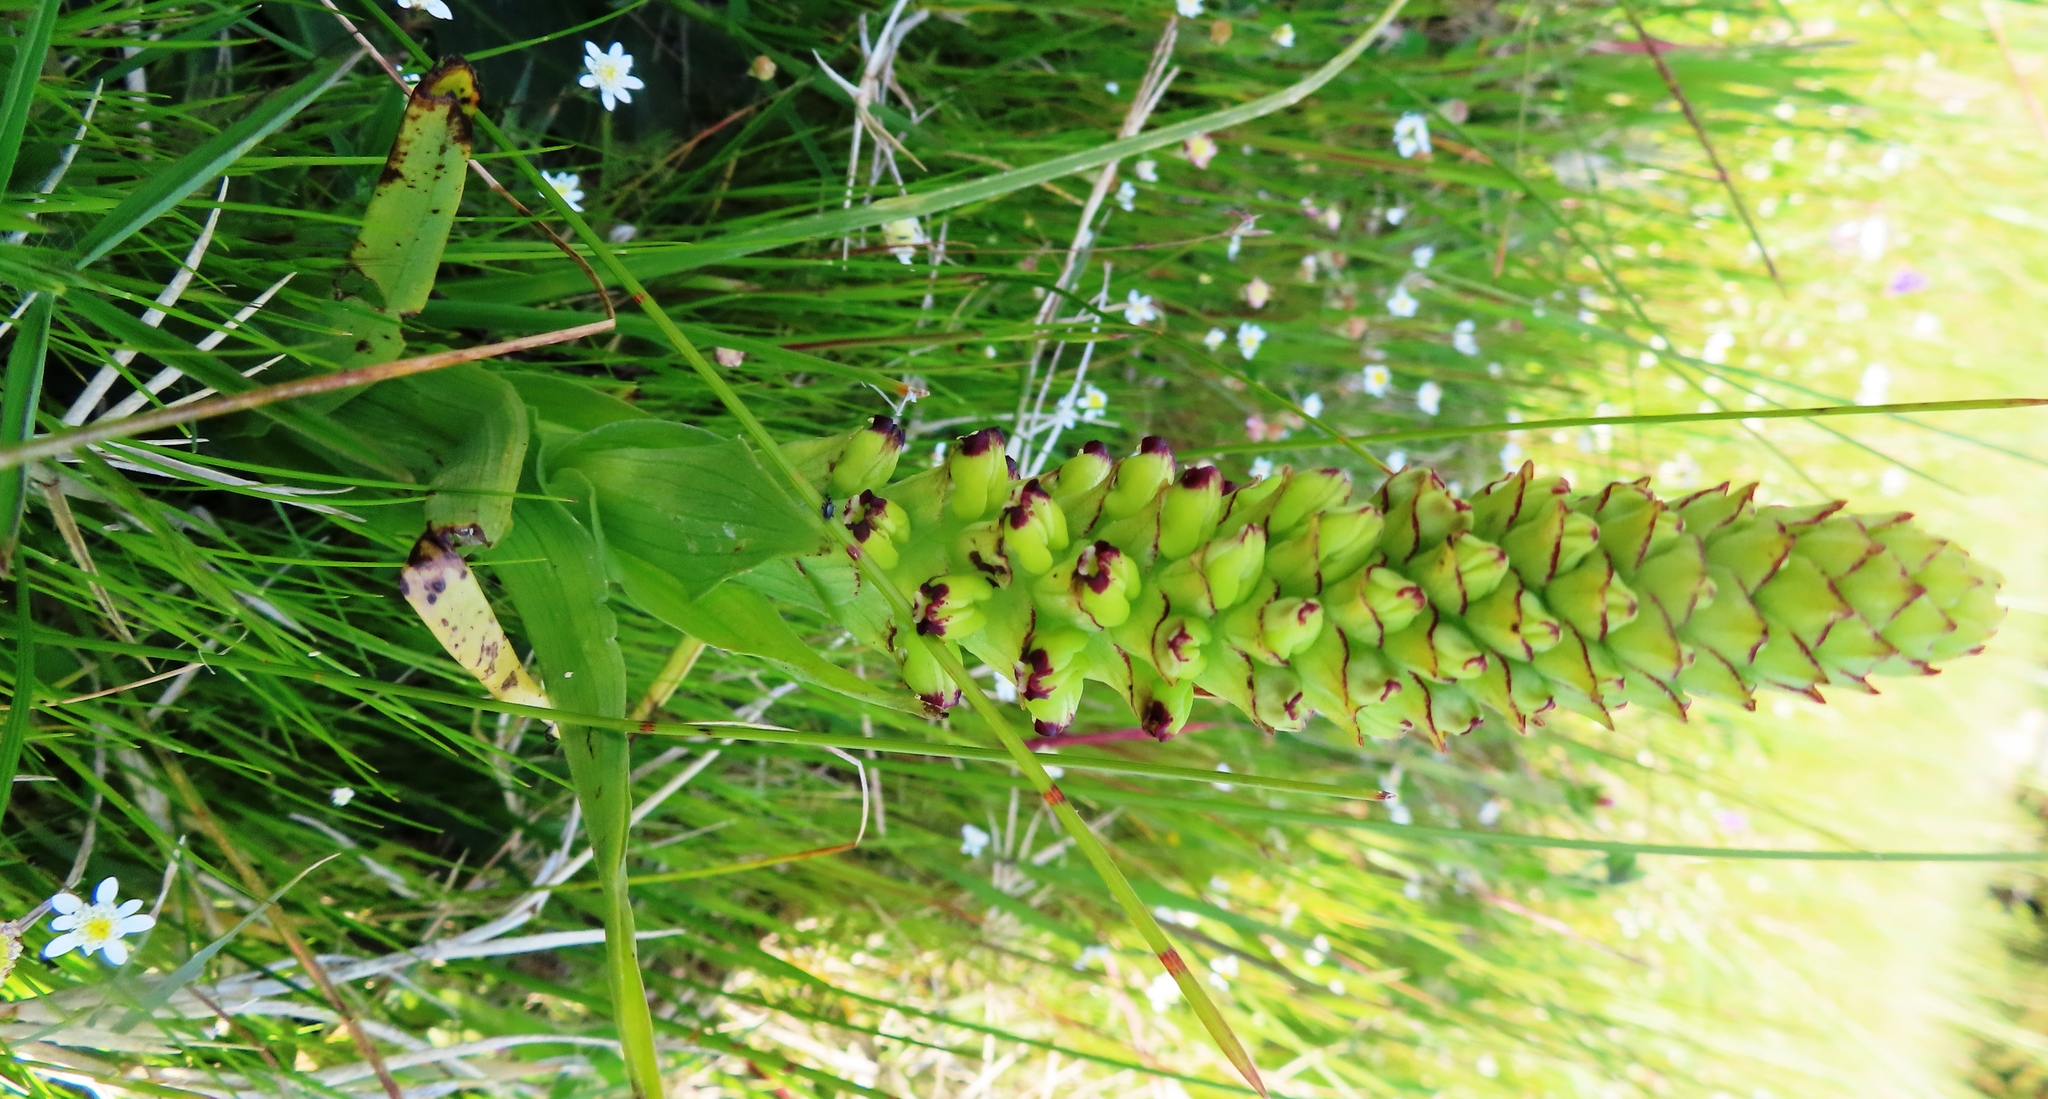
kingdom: Plantae
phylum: Tracheophyta
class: Liliopsida
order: Asparagales
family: Orchidaceae
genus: Corycium
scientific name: Corycium orobanchoides
